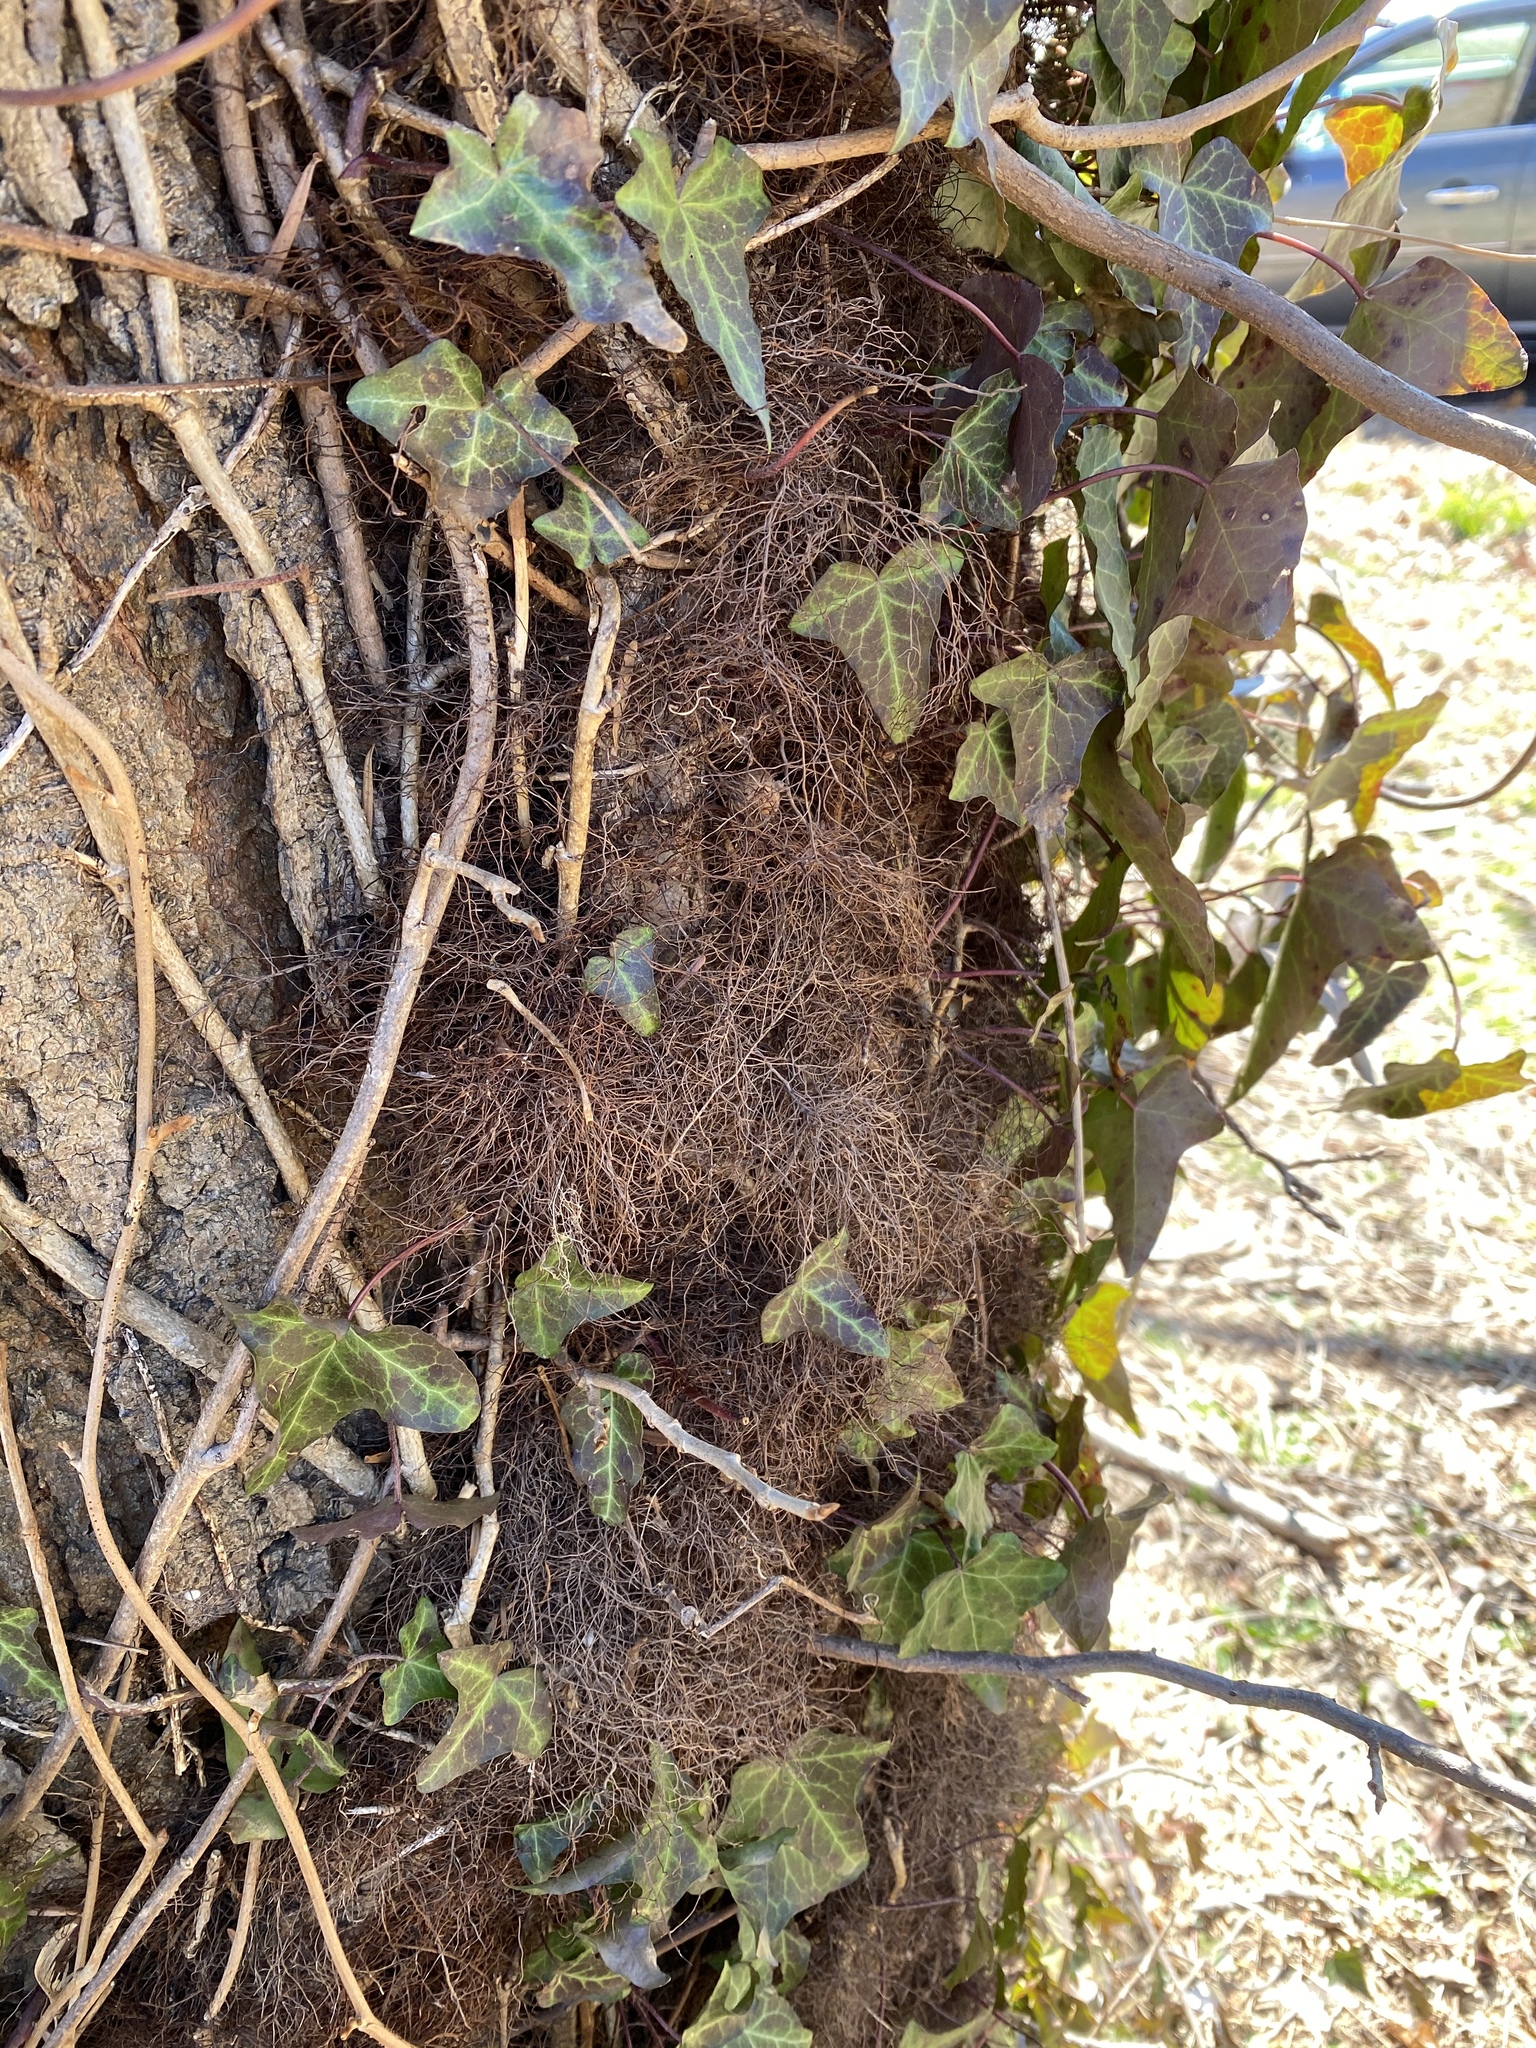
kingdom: Plantae
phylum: Tracheophyta
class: Magnoliopsida
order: Sapindales
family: Anacardiaceae
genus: Toxicodendron
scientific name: Toxicodendron radicans
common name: Poison ivy
